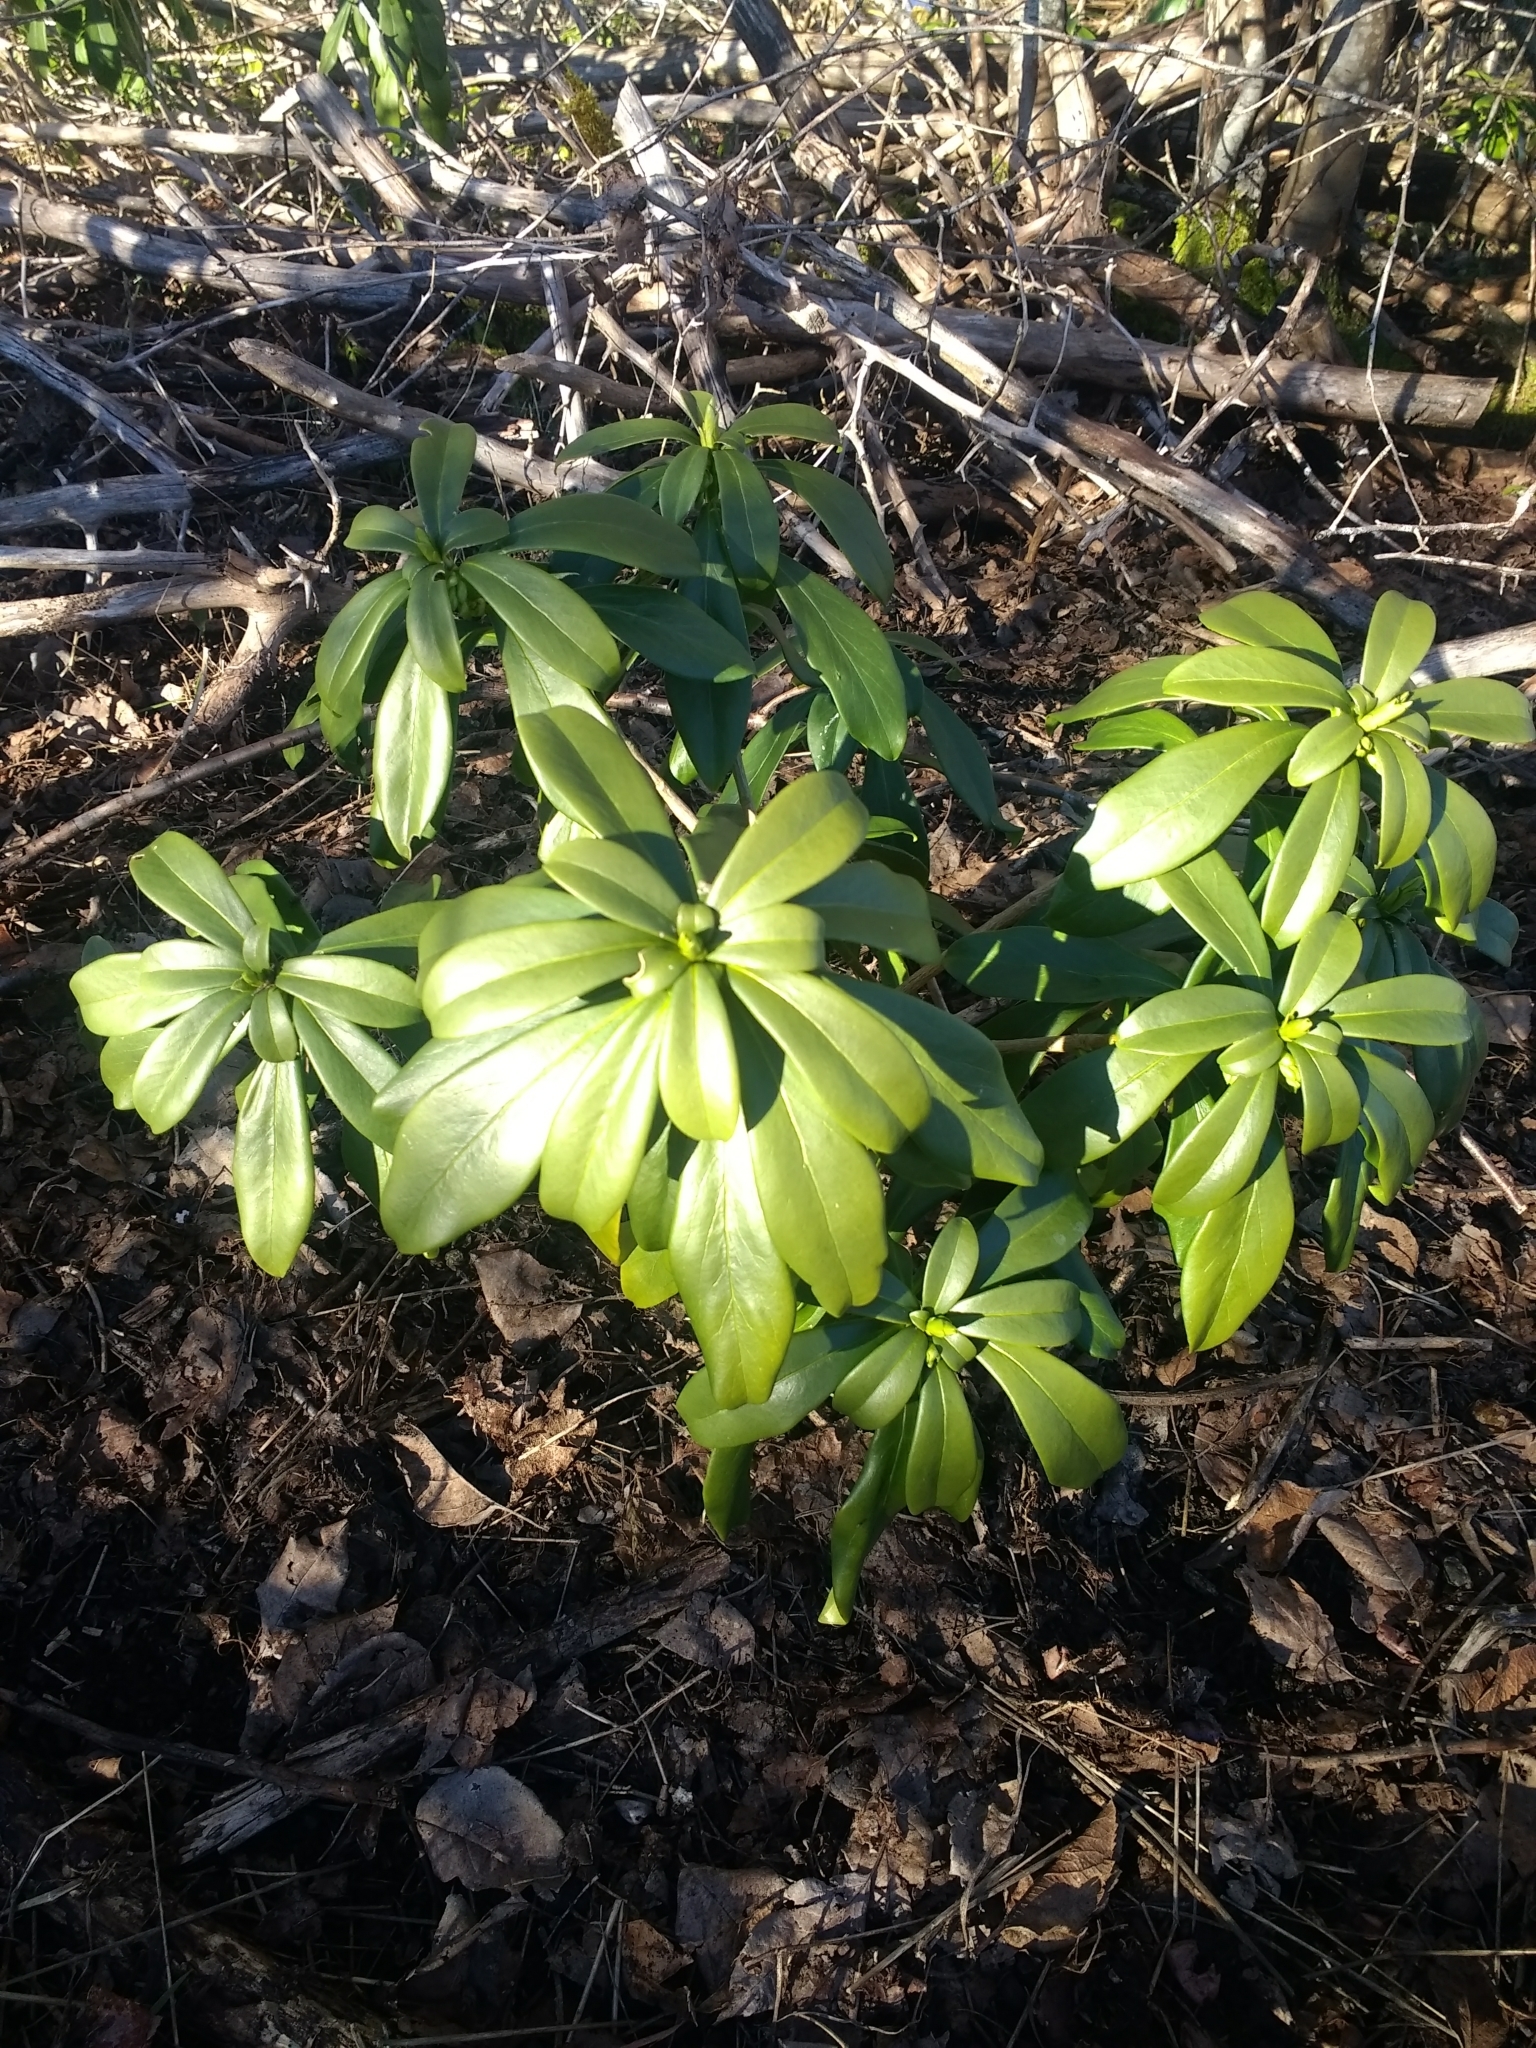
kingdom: Plantae
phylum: Tracheophyta
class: Magnoliopsida
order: Malvales
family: Thymelaeaceae
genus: Daphne
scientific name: Daphne laureola
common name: Spurge-laurel
